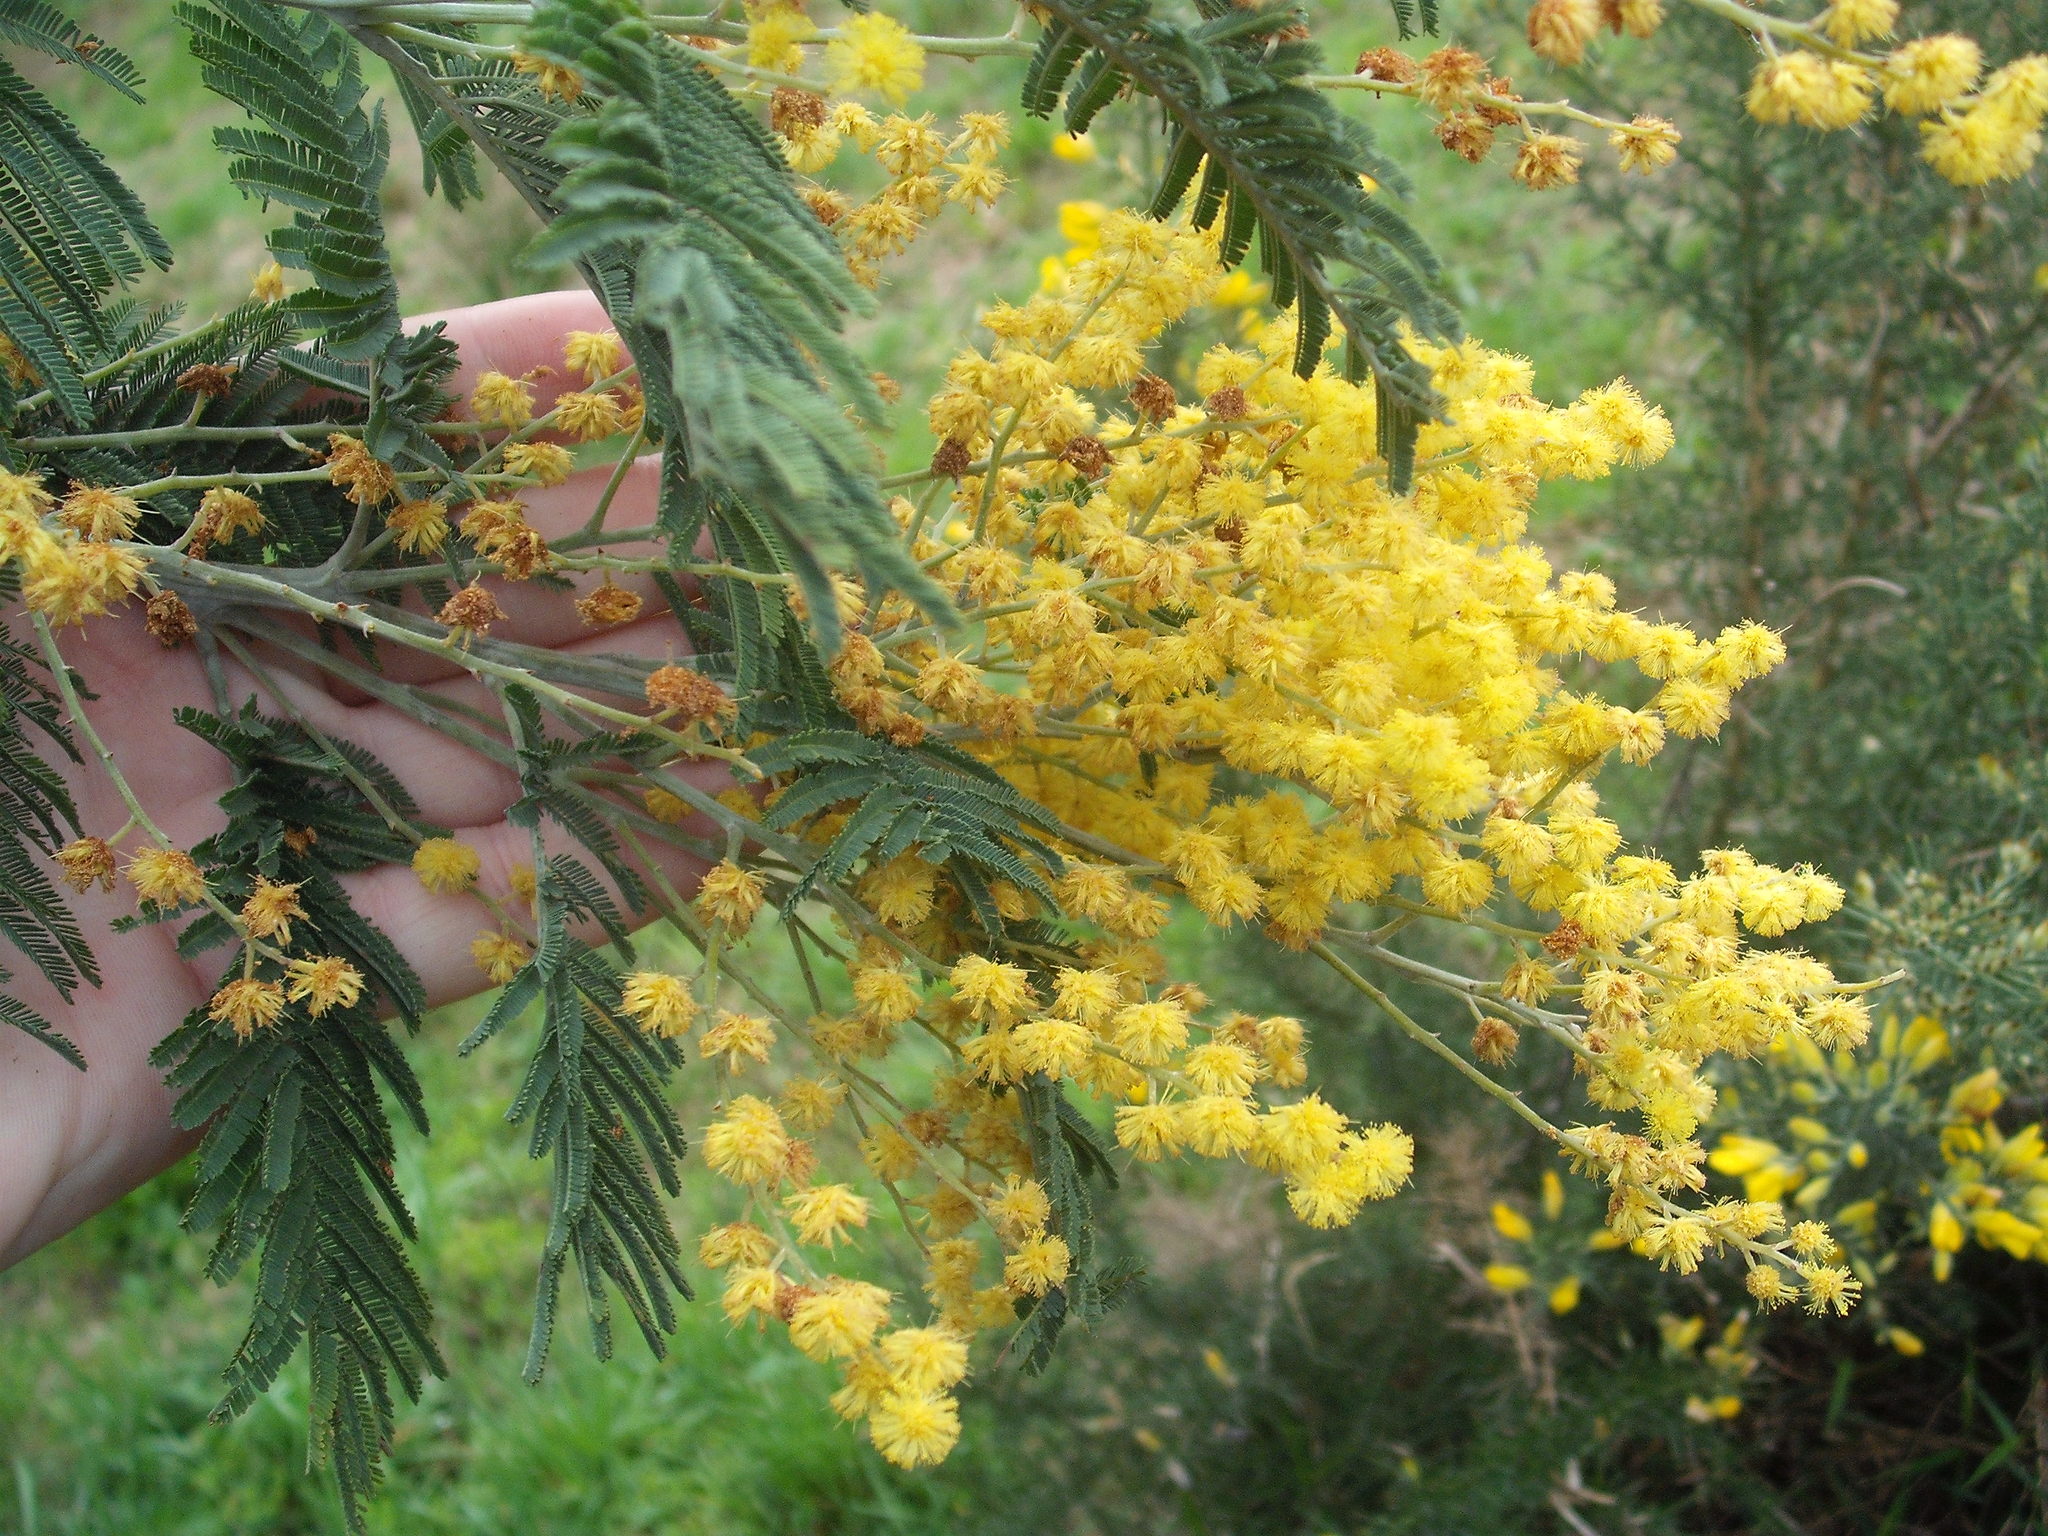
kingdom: Plantae
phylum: Tracheophyta
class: Magnoliopsida
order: Fabales
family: Fabaceae
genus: Acacia
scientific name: Acacia dealbata
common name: Silver wattle
